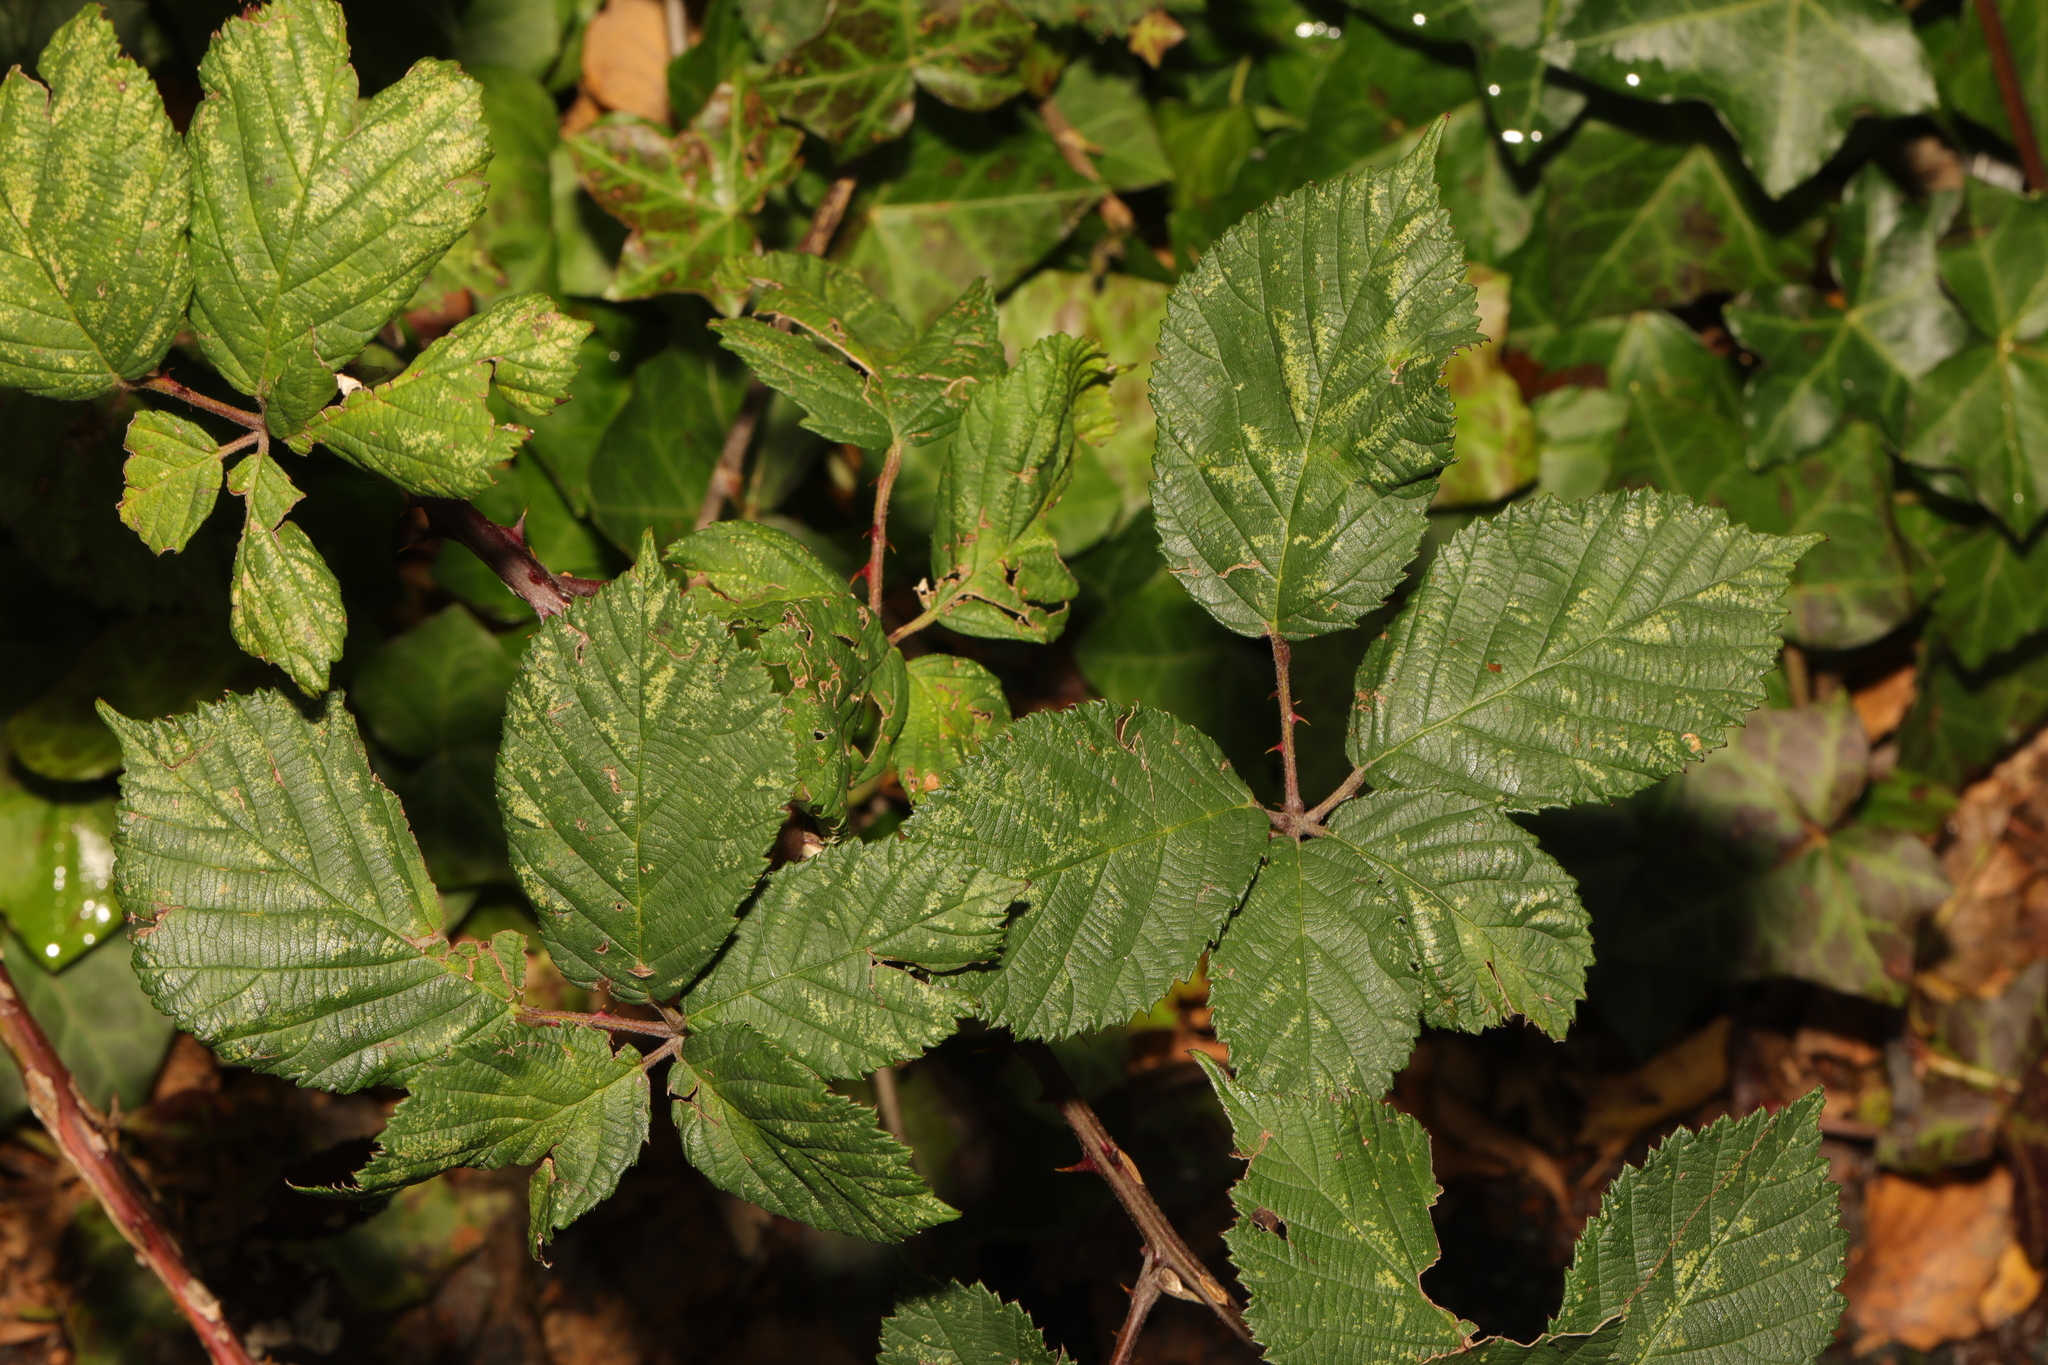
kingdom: Plantae
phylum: Tracheophyta
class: Magnoliopsida
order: Rosales
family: Rosaceae
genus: Rubus
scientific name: Rubus armeniacus
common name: Himalayan blackberry
